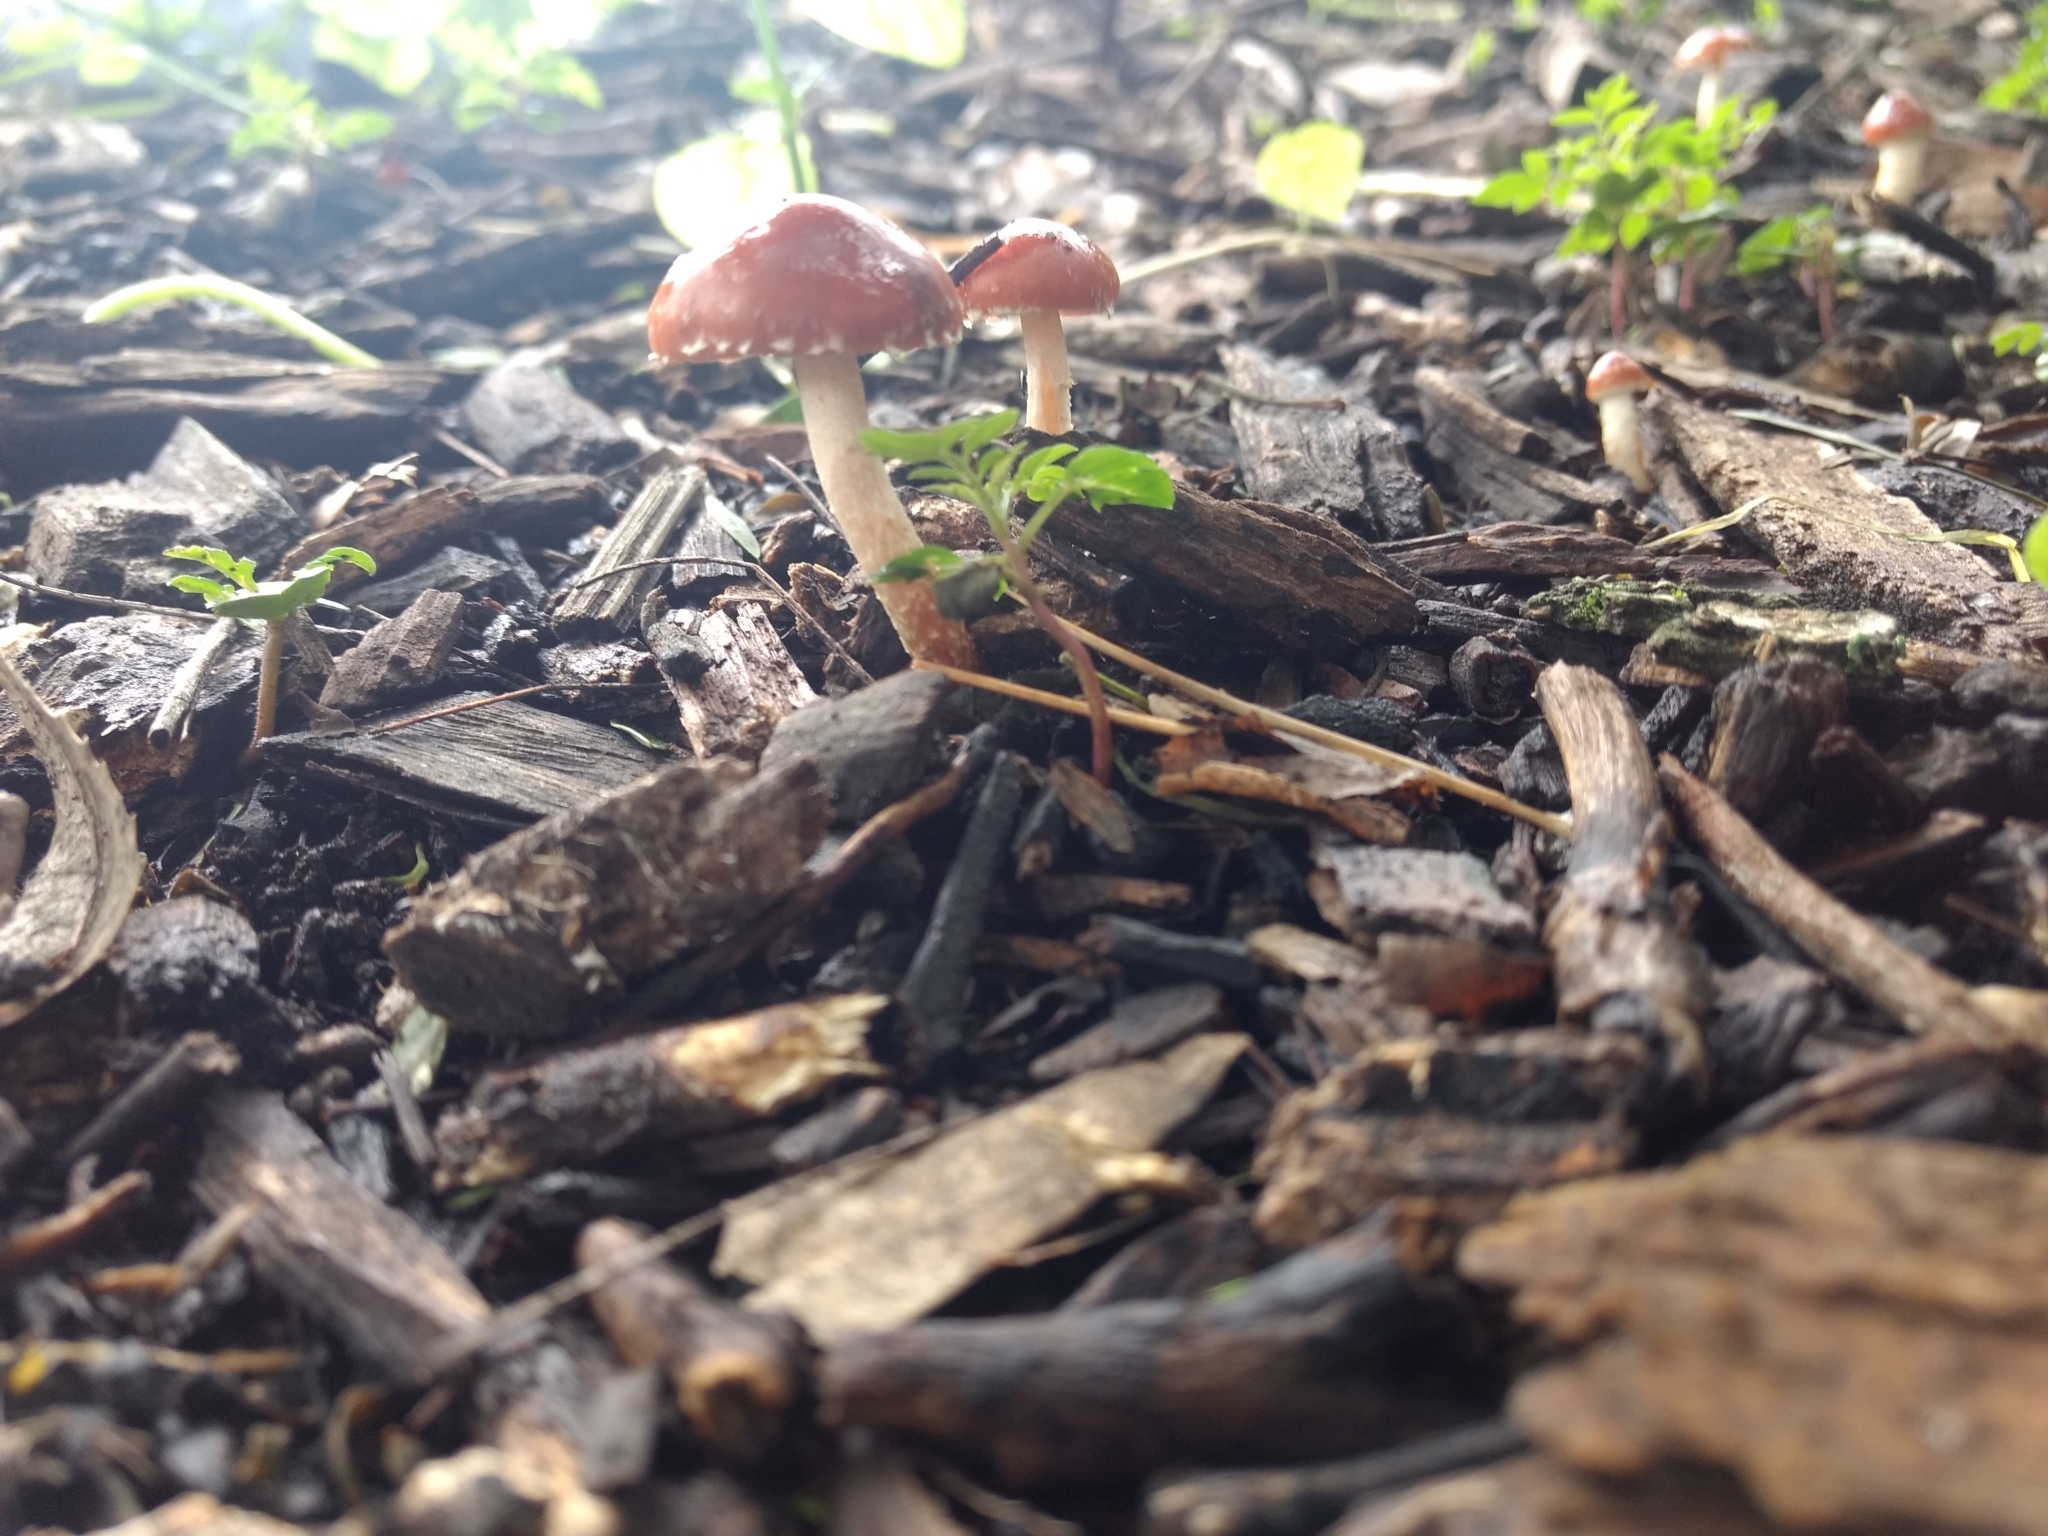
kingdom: Fungi
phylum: Basidiomycota
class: Agaricomycetes
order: Agaricales
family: Strophariaceae
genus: Leratiomyces
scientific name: Leratiomyces ceres
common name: Redlead roundhead
